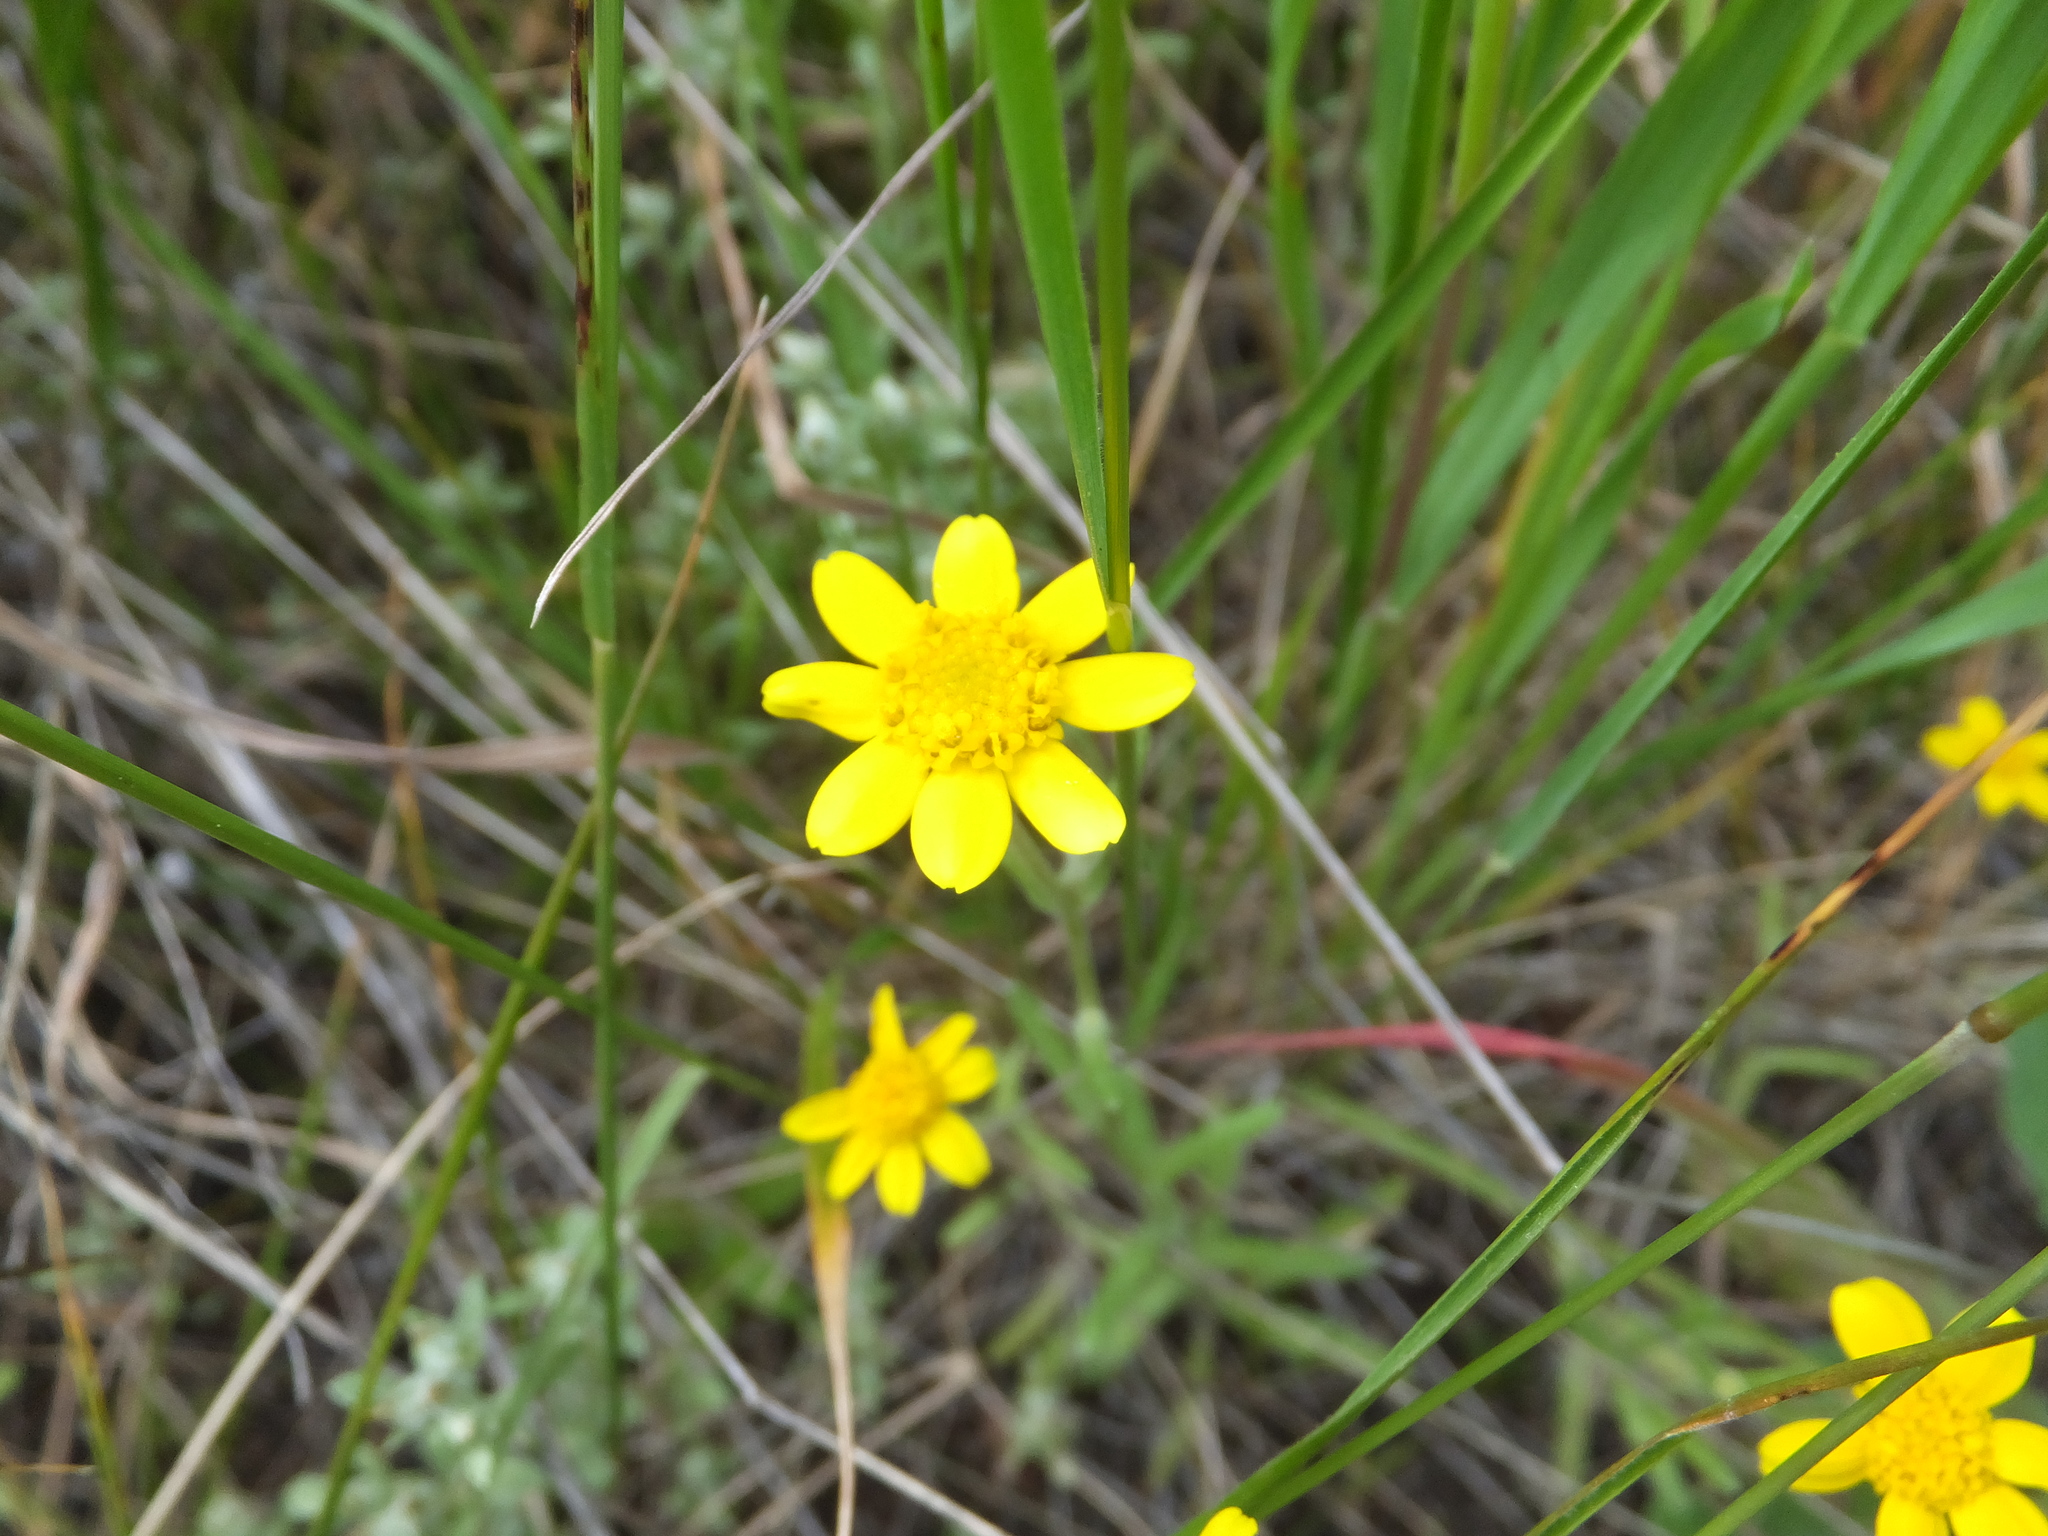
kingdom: Plantae
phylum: Tracheophyta
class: Magnoliopsida
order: Asterales
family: Asteraceae
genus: Monolopia
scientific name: Monolopia gracilens
